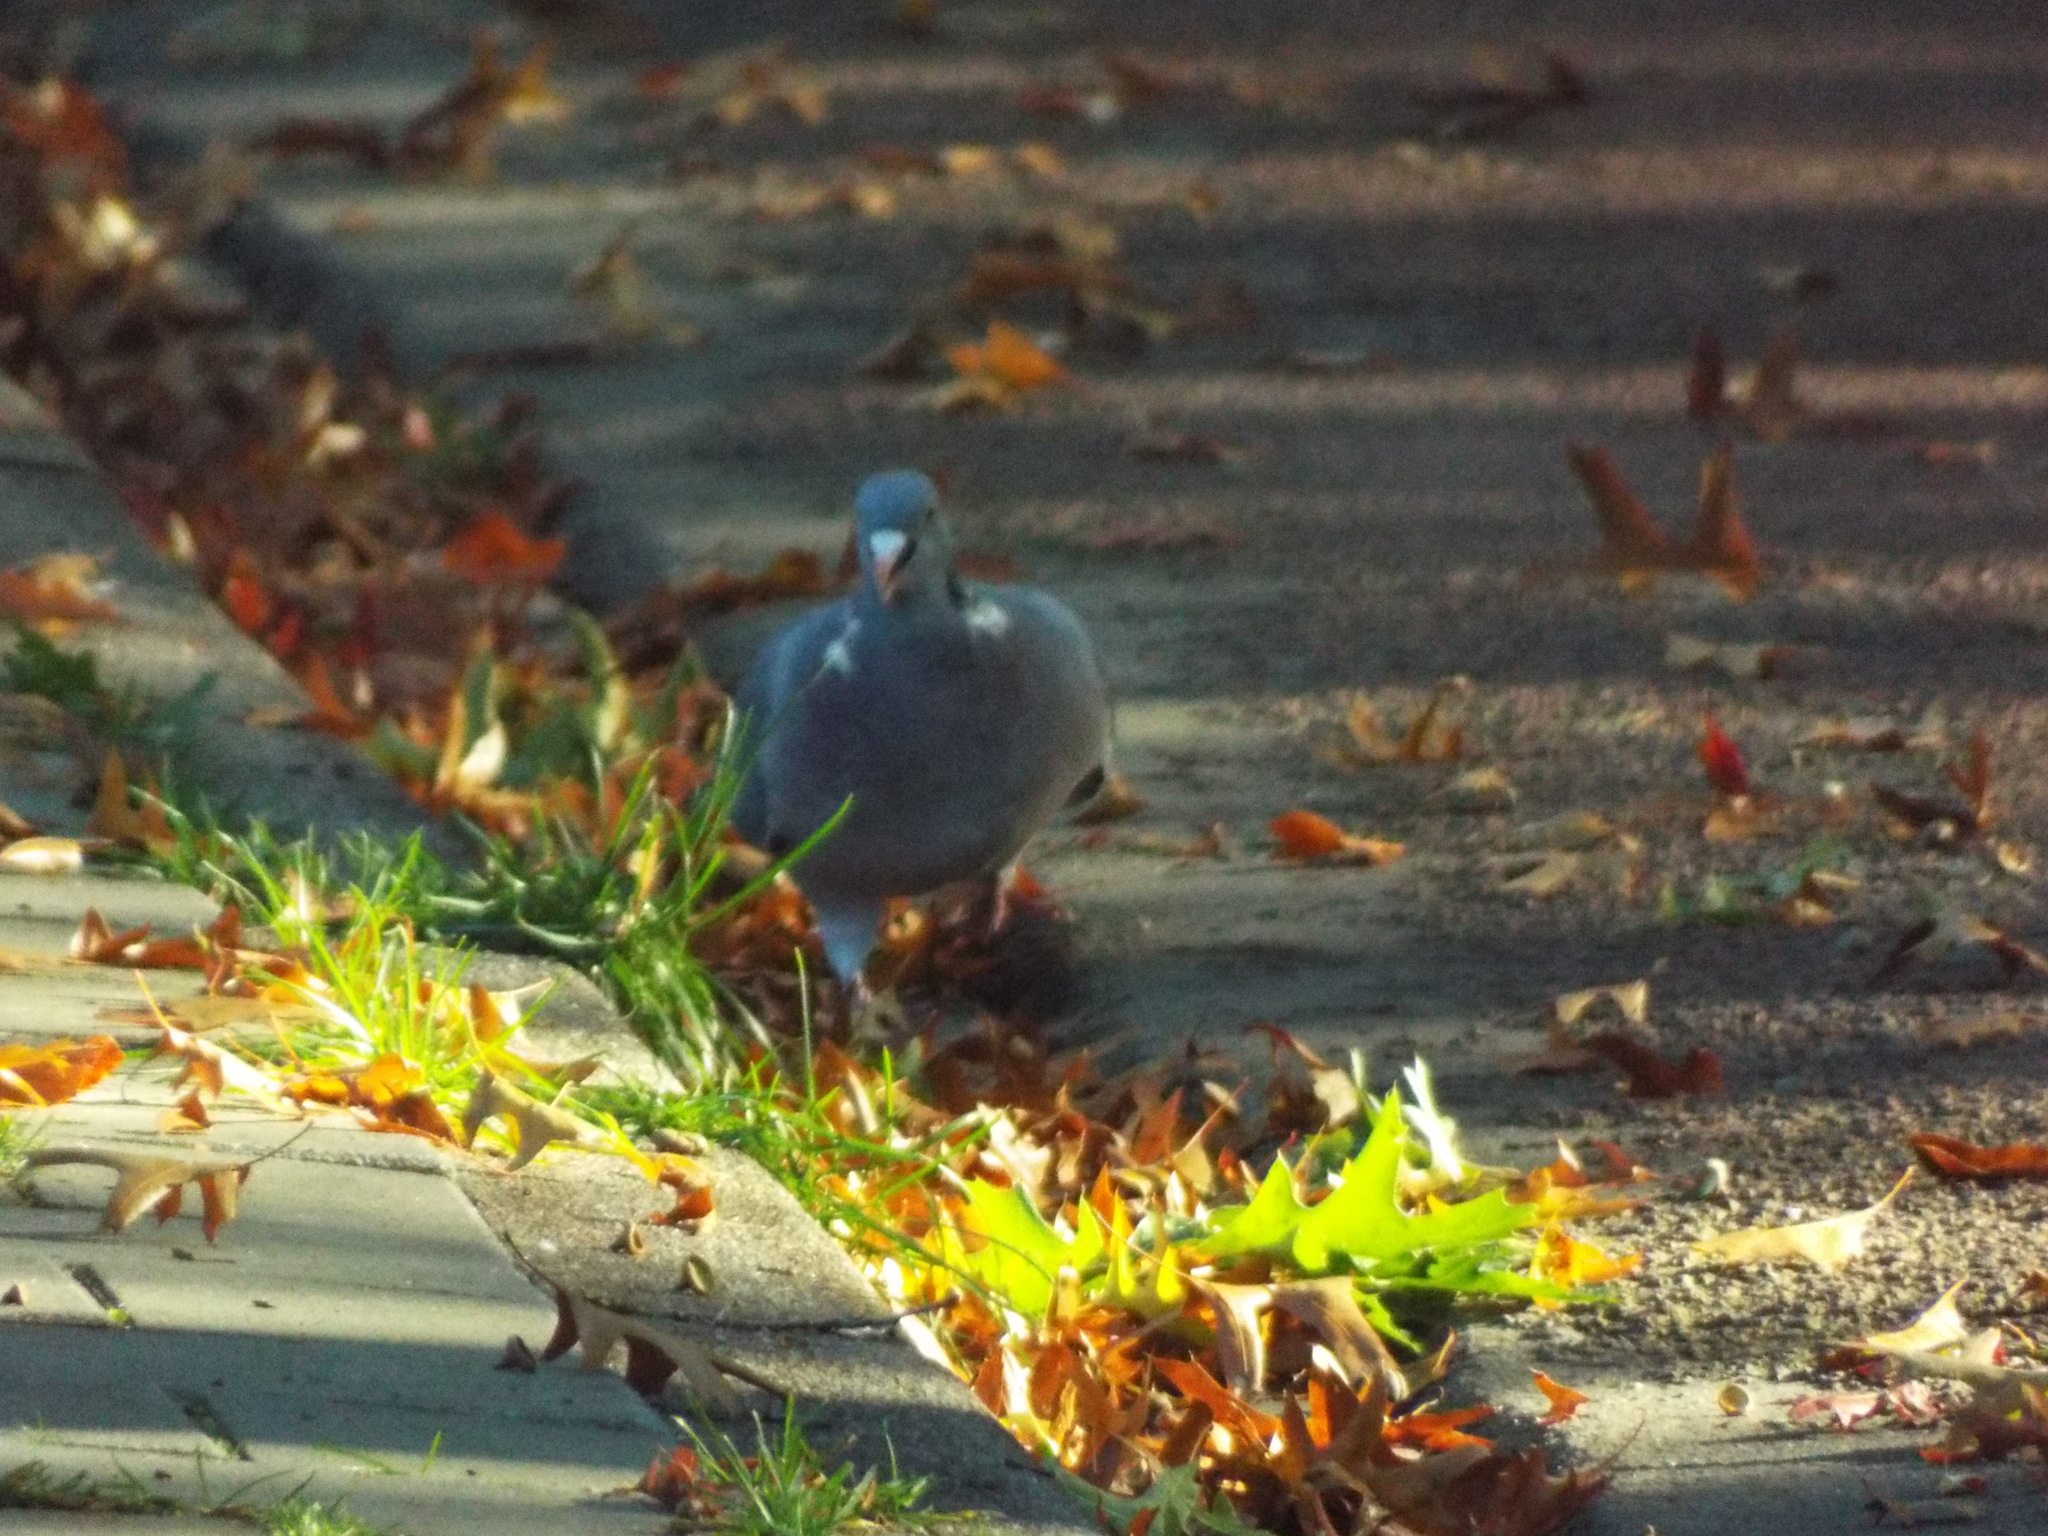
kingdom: Animalia
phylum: Chordata
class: Aves
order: Columbiformes
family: Columbidae
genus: Columba
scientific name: Columba palumbus
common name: Common wood pigeon
